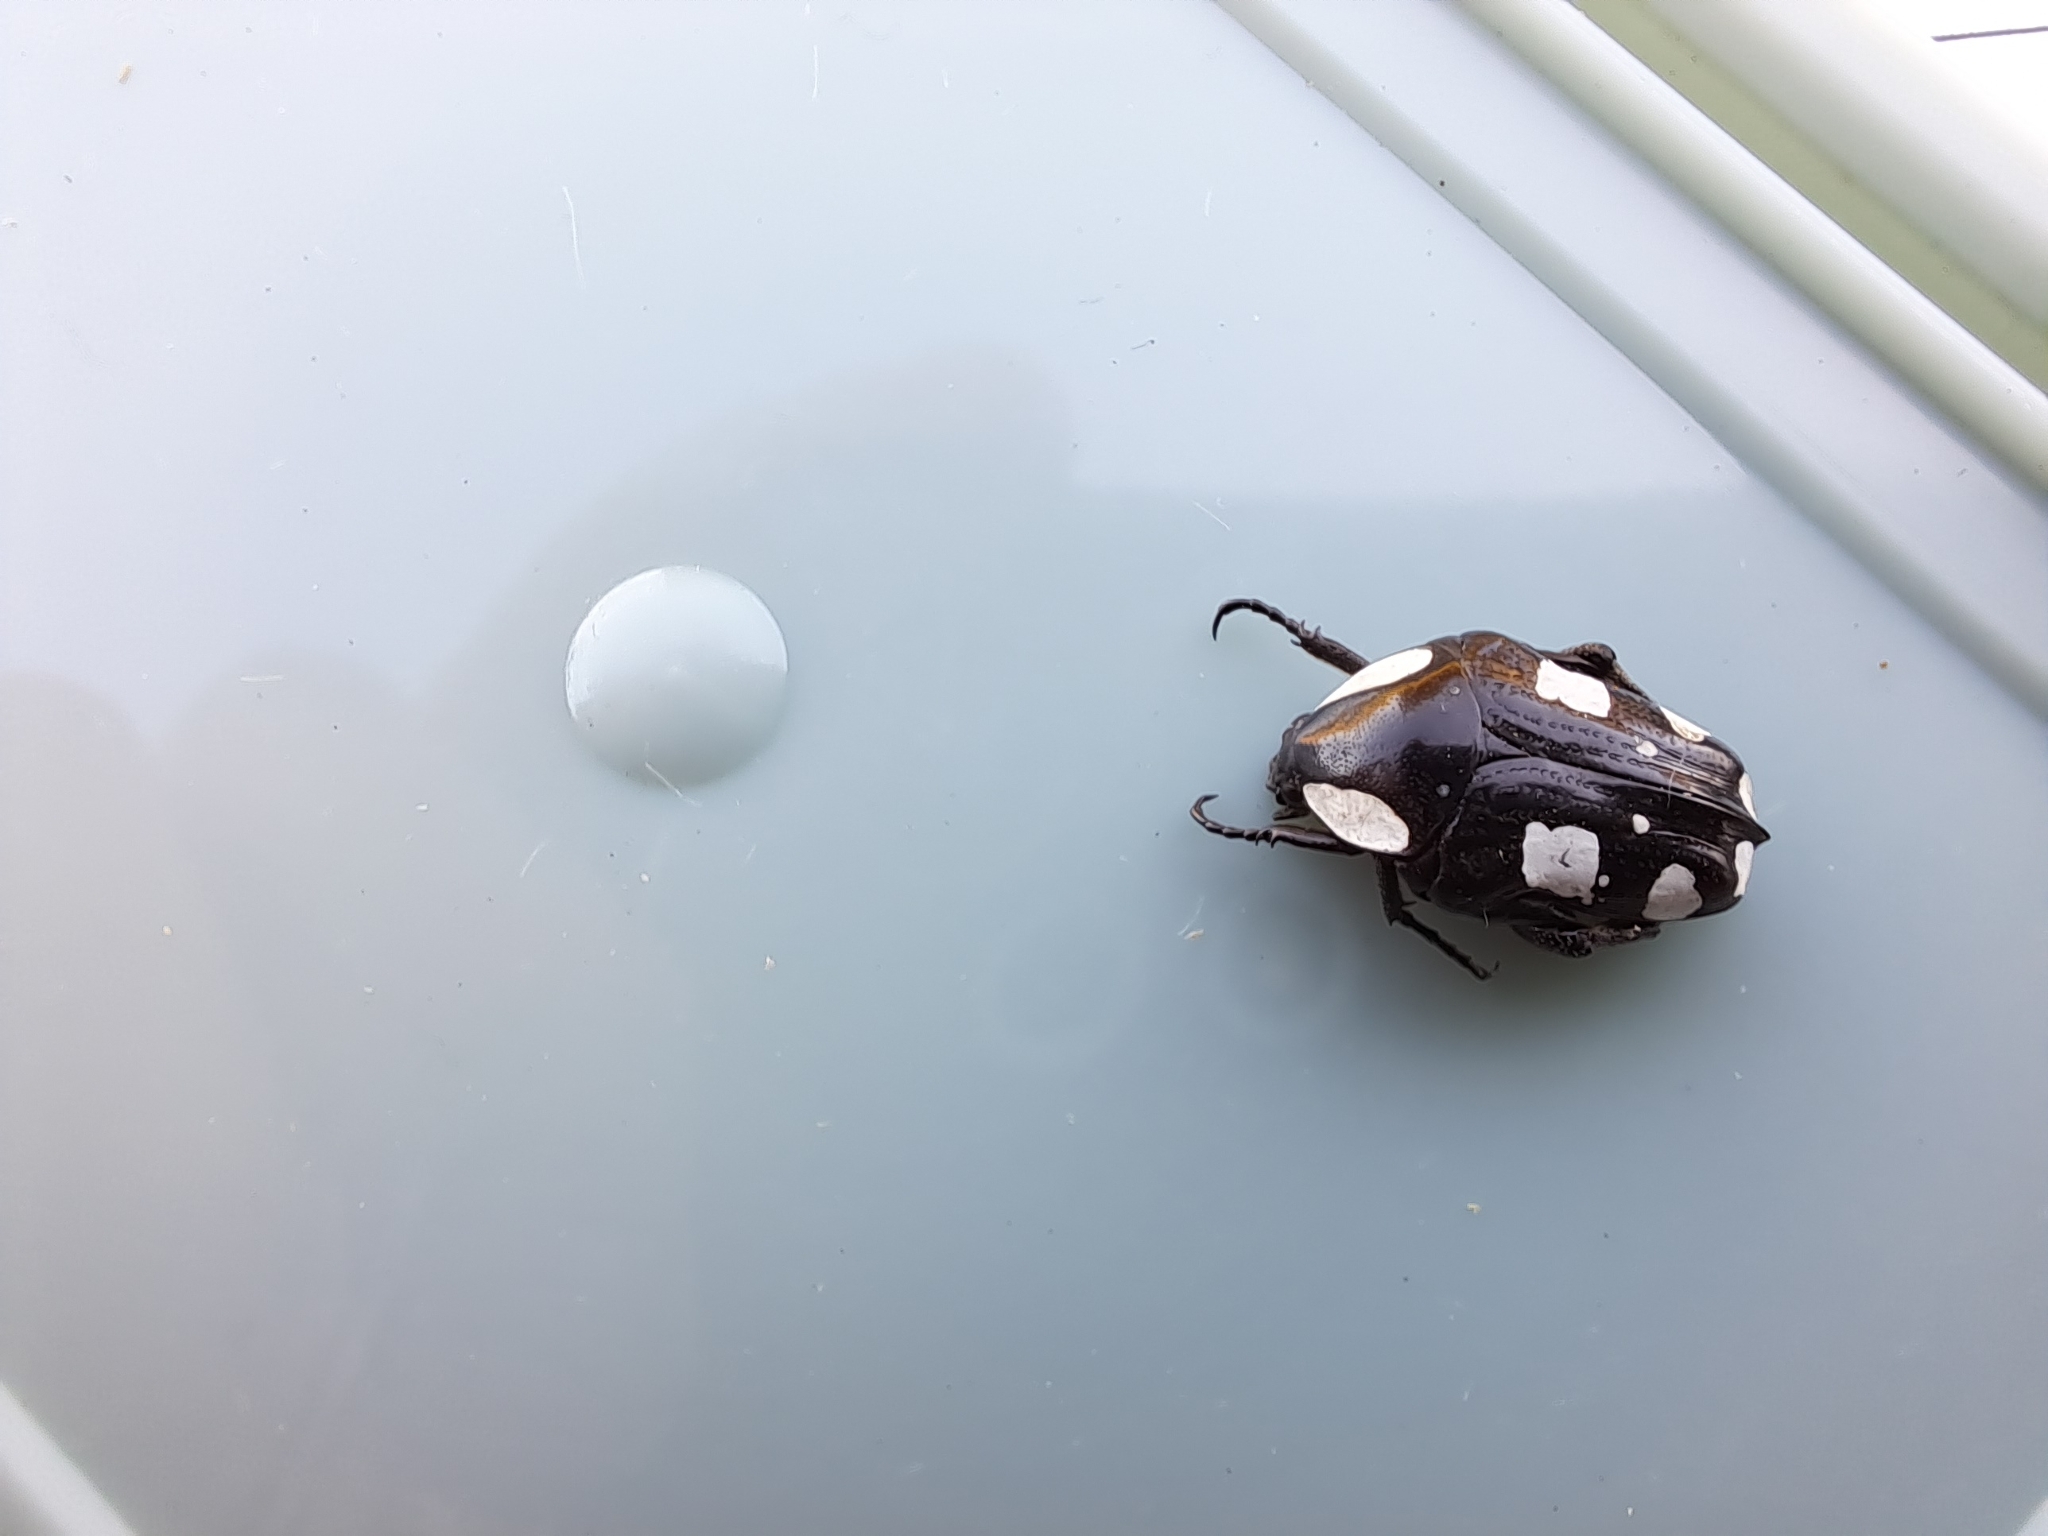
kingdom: Animalia
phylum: Arthropoda
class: Insecta
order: Coleoptera
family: Scarabaeidae
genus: Mausoleopsis
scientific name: Mausoleopsis amabilis
